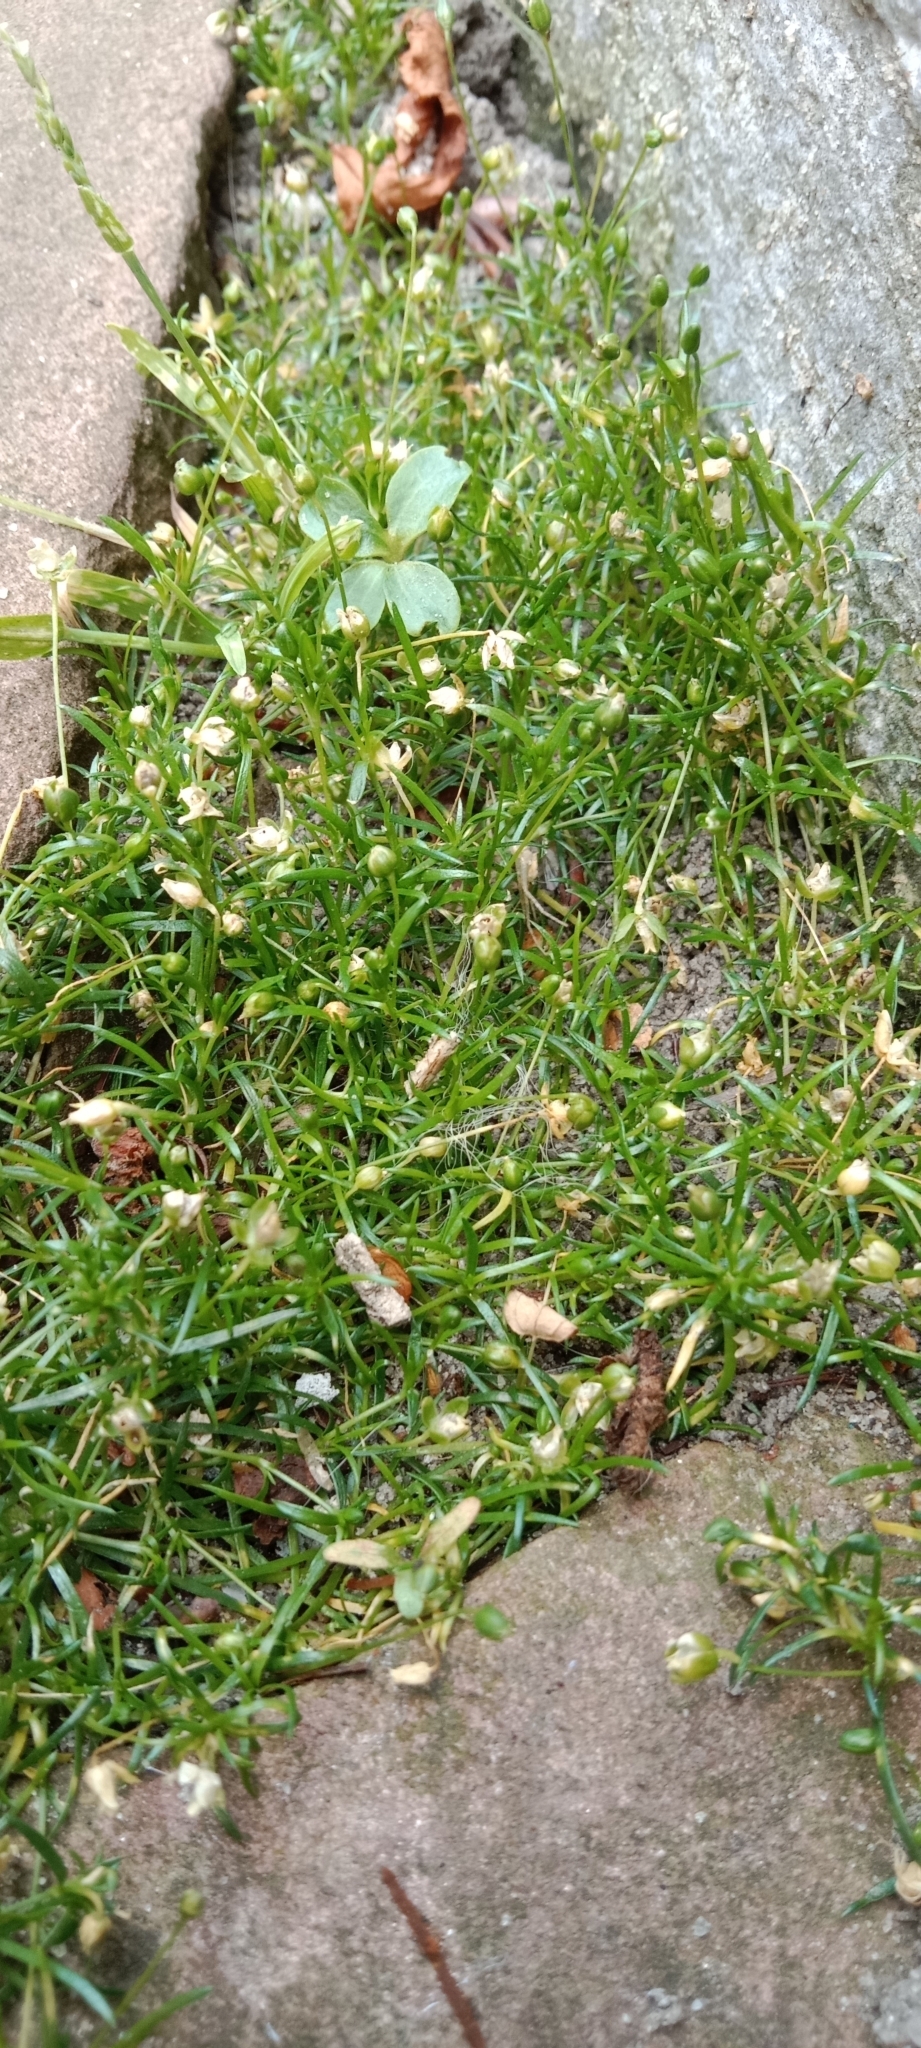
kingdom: Plantae
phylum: Tracheophyta
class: Magnoliopsida
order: Caryophyllales
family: Caryophyllaceae
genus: Sagina
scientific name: Sagina procumbens
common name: Procumbent pearlwort
